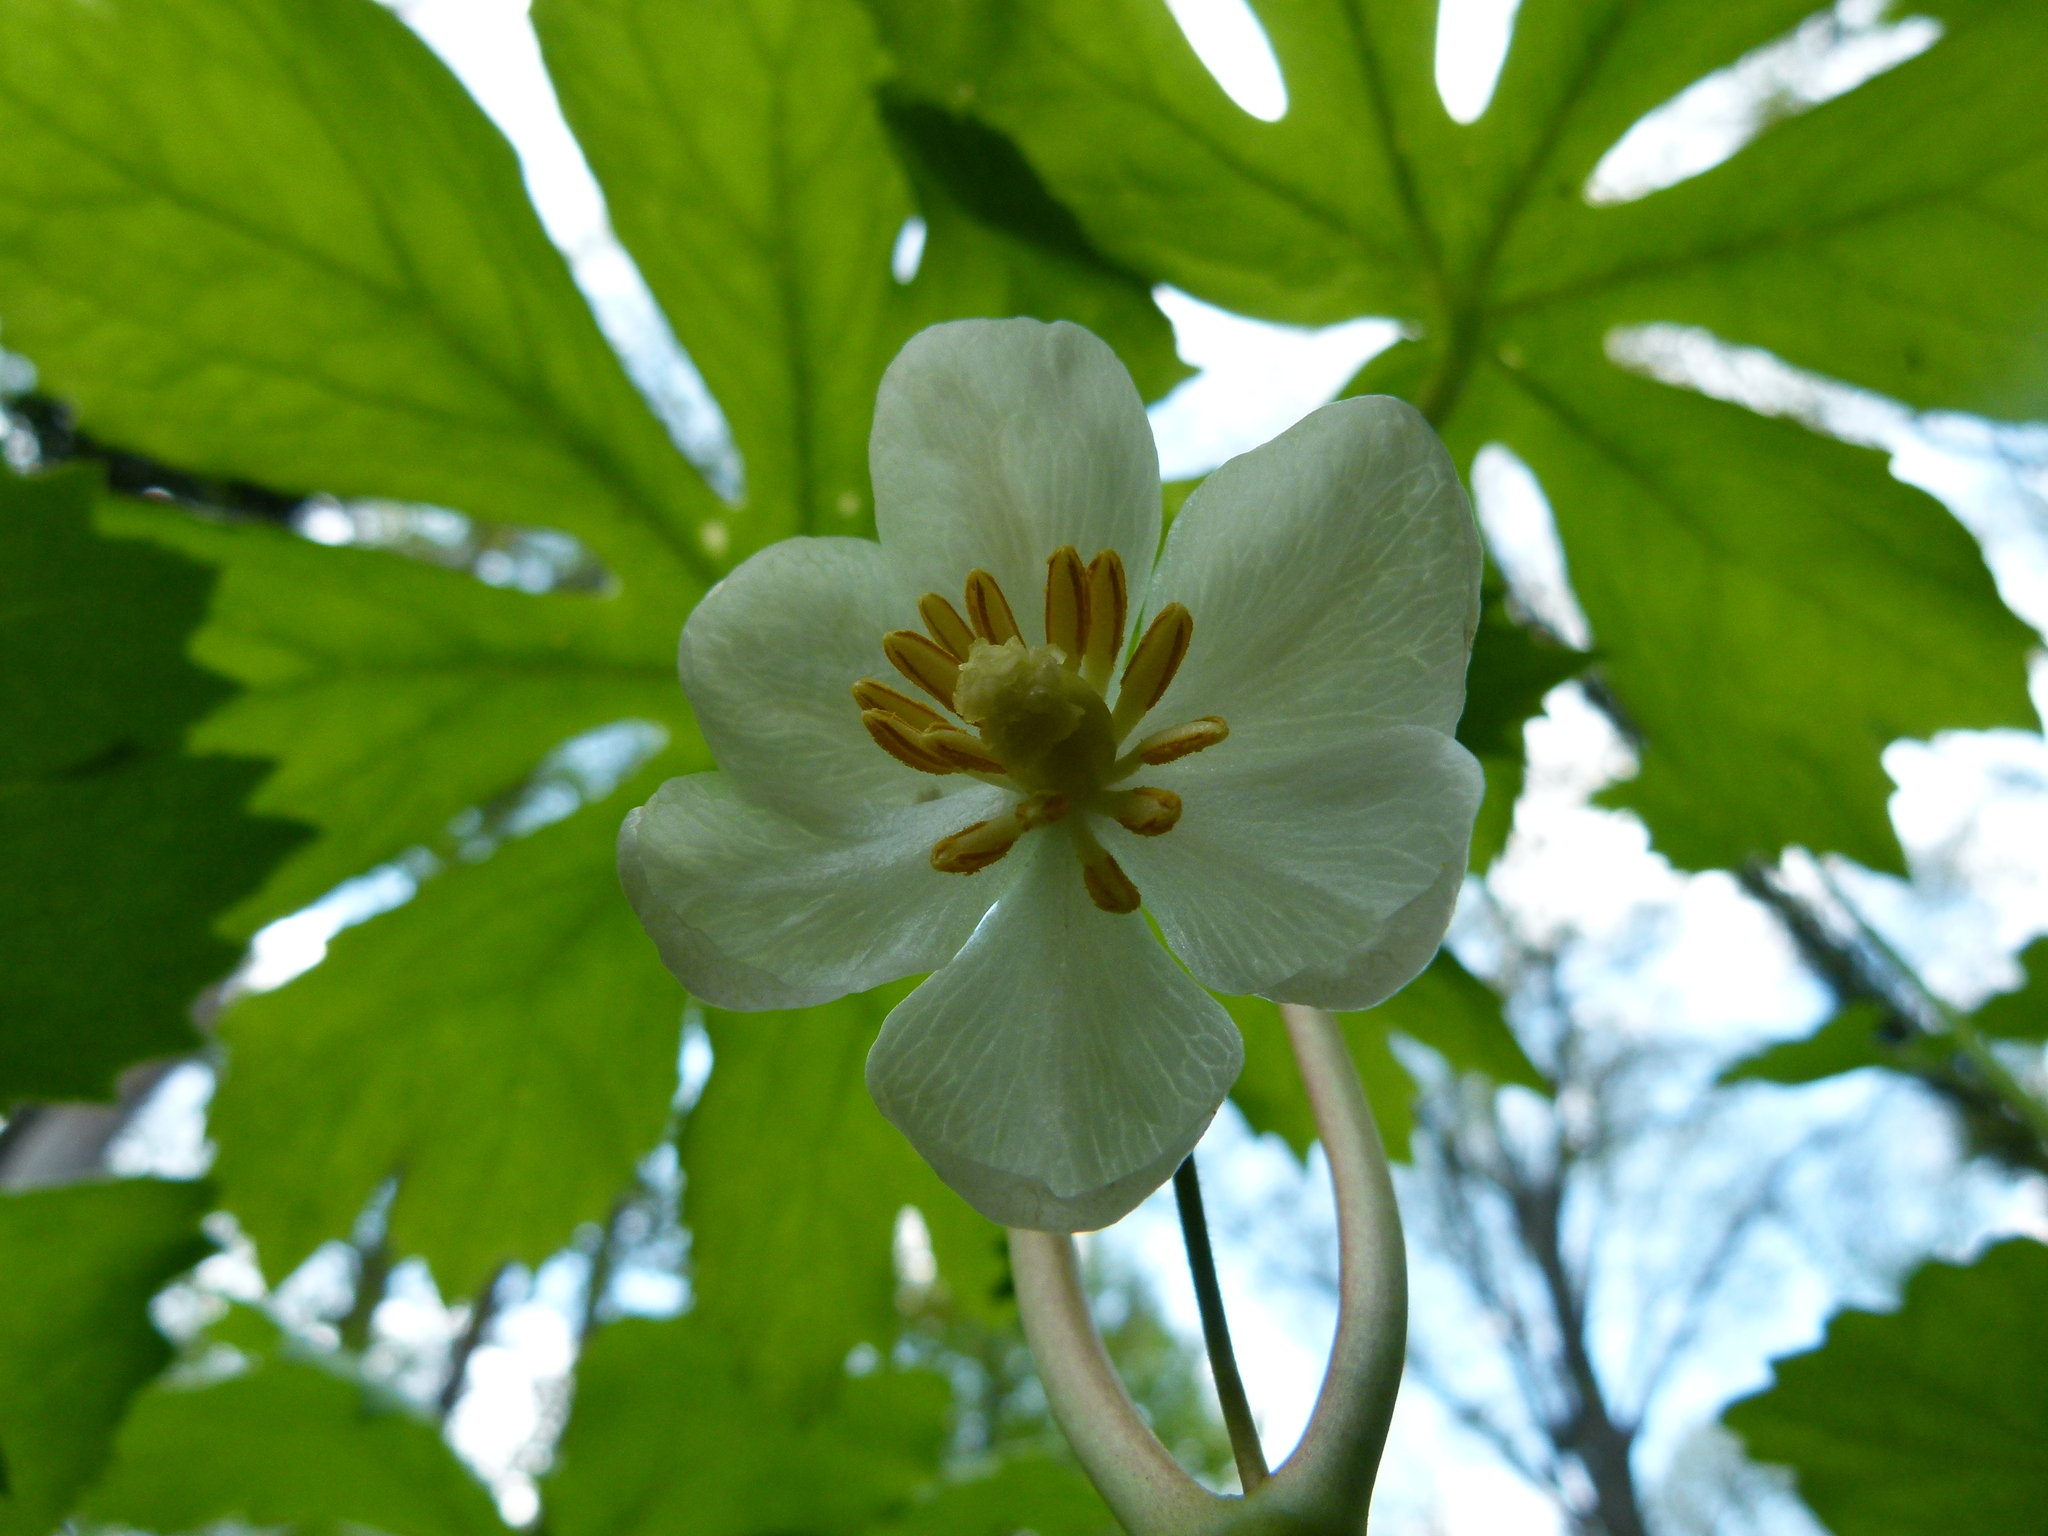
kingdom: Plantae
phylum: Tracheophyta
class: Magnoliopsida
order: Ranunculales
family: Berberidaceae
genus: Podophyllum
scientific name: Podophyllum peltatum
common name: Wild mandrake
